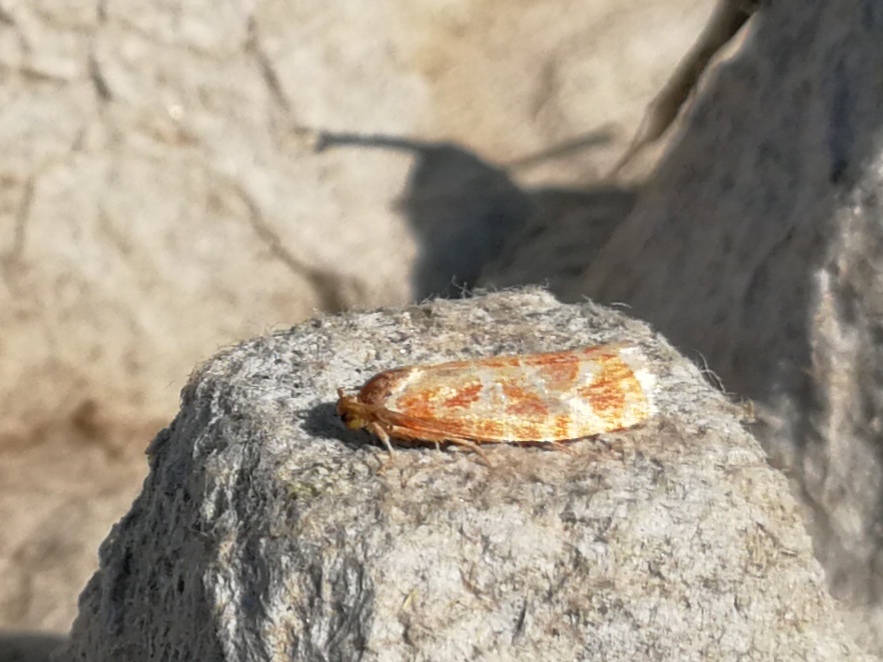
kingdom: Animalia
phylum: Arthropoda
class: Insecta
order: Lepidoptera
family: Tortricidae
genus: Rhyacionia
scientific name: Rhyacionia buoliana
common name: European pine shoot moth
